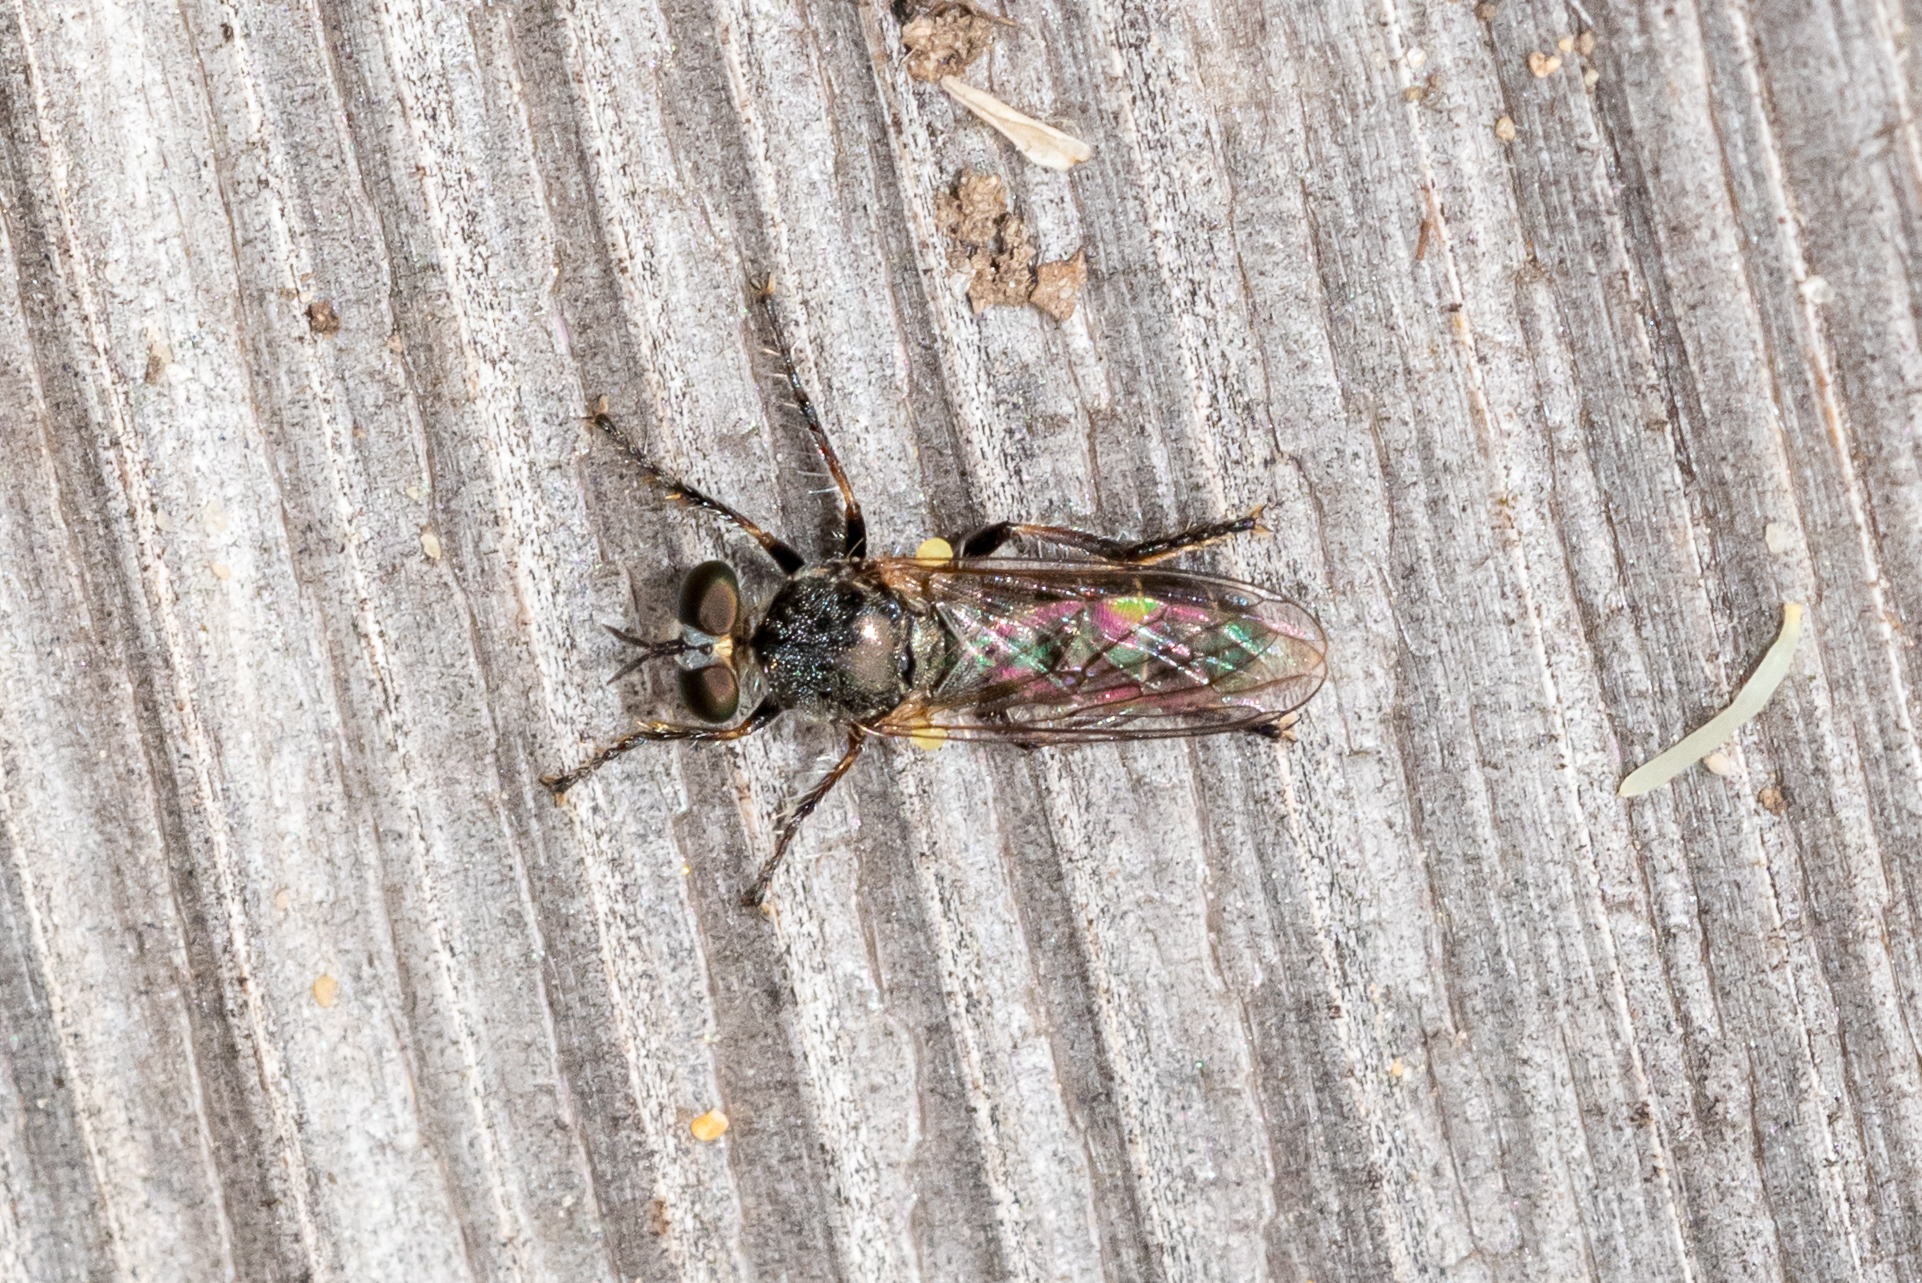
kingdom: Animalia
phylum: Arthropoda
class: Insecta
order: Diptera
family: Asilidae
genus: Atomosia
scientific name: Atomosia puella
